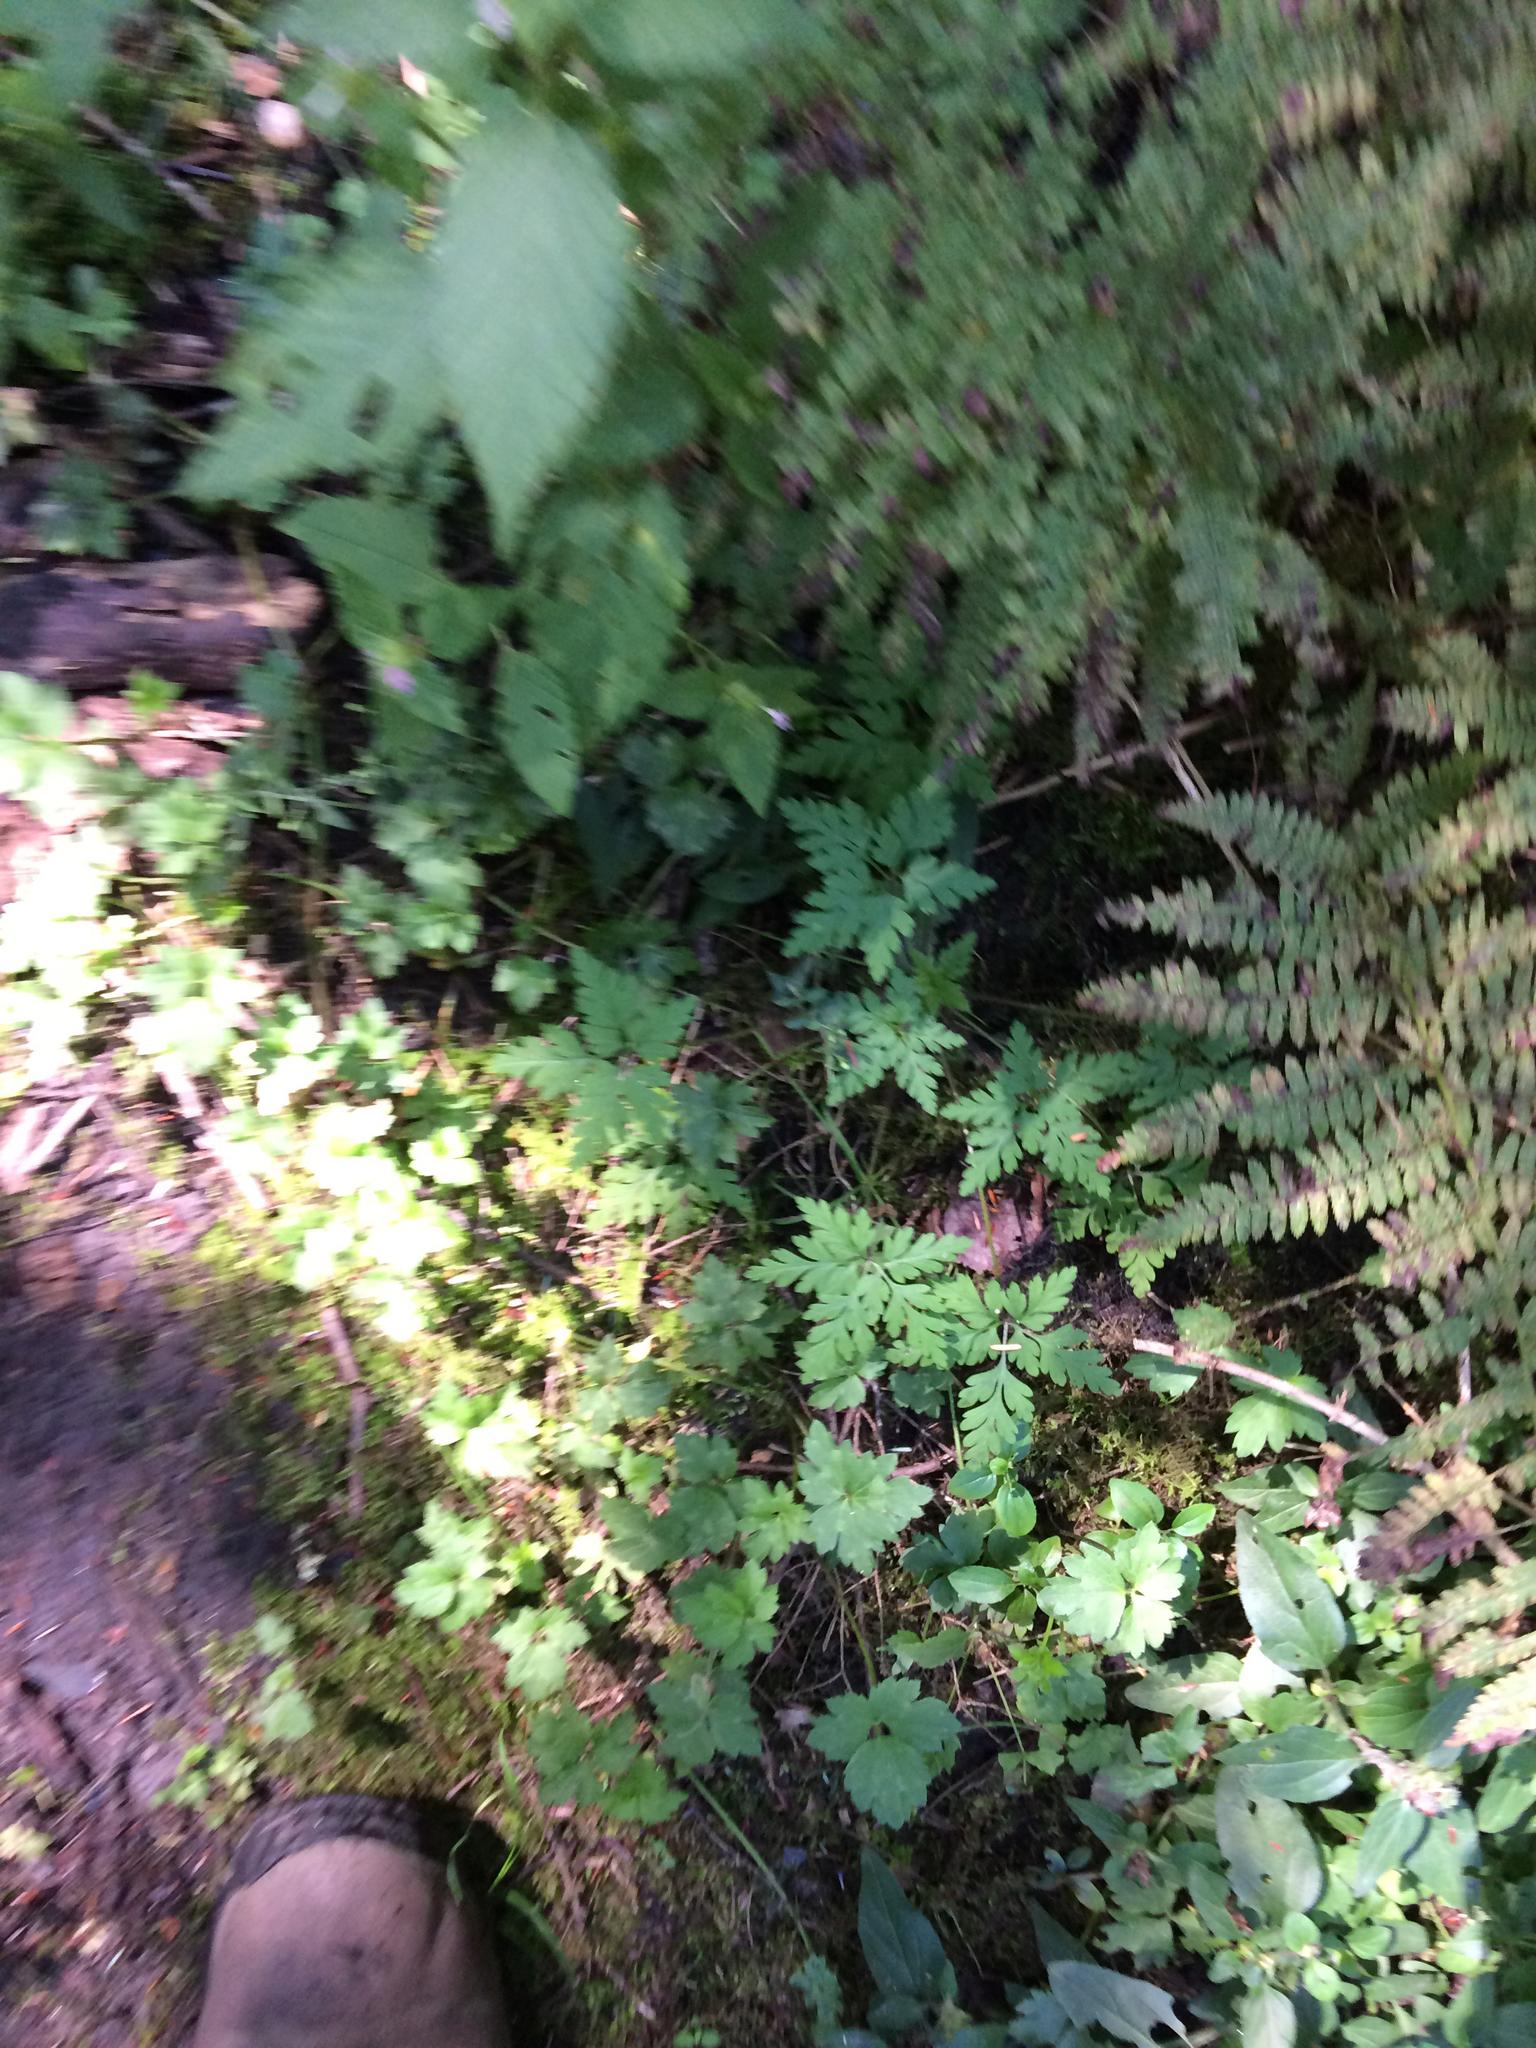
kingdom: Plantae
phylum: Tracheophyta
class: Magnoliopsida
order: Geraniales
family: Geraniaceae
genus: Geranium
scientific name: Geranium robertianum
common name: Herb-robert
